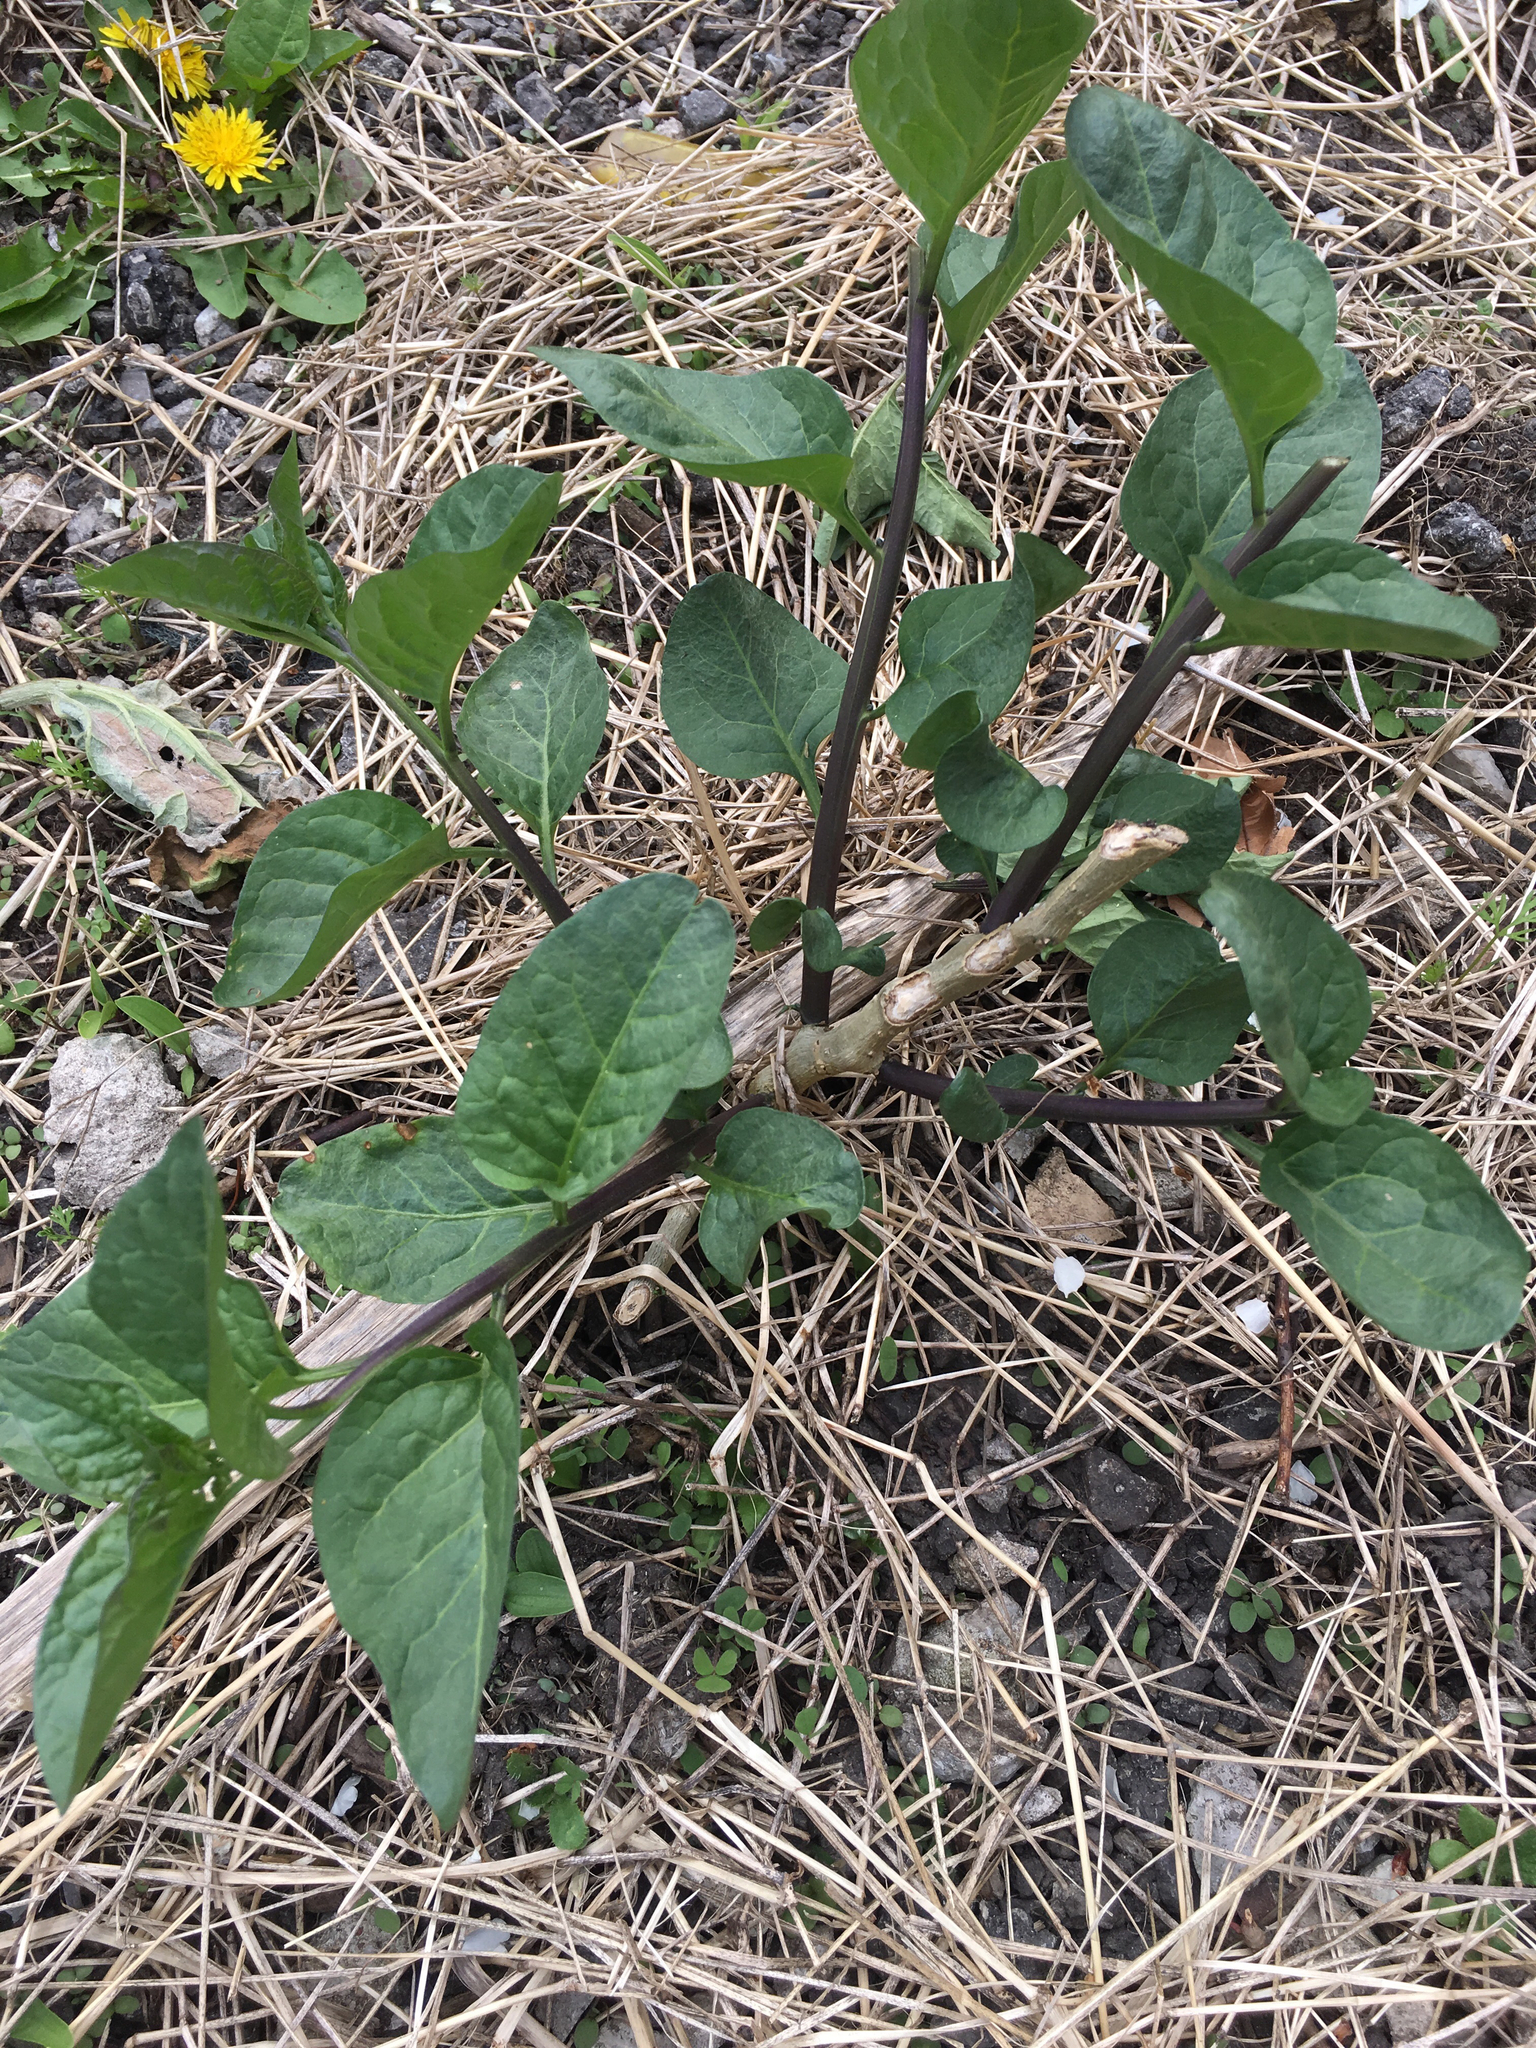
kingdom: Plantae
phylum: Tracheophyta
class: Magnoliopsida
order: Solanales
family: Solanaceae
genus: Solanum
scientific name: Solanum dulcamara
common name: Climbing nightshade
